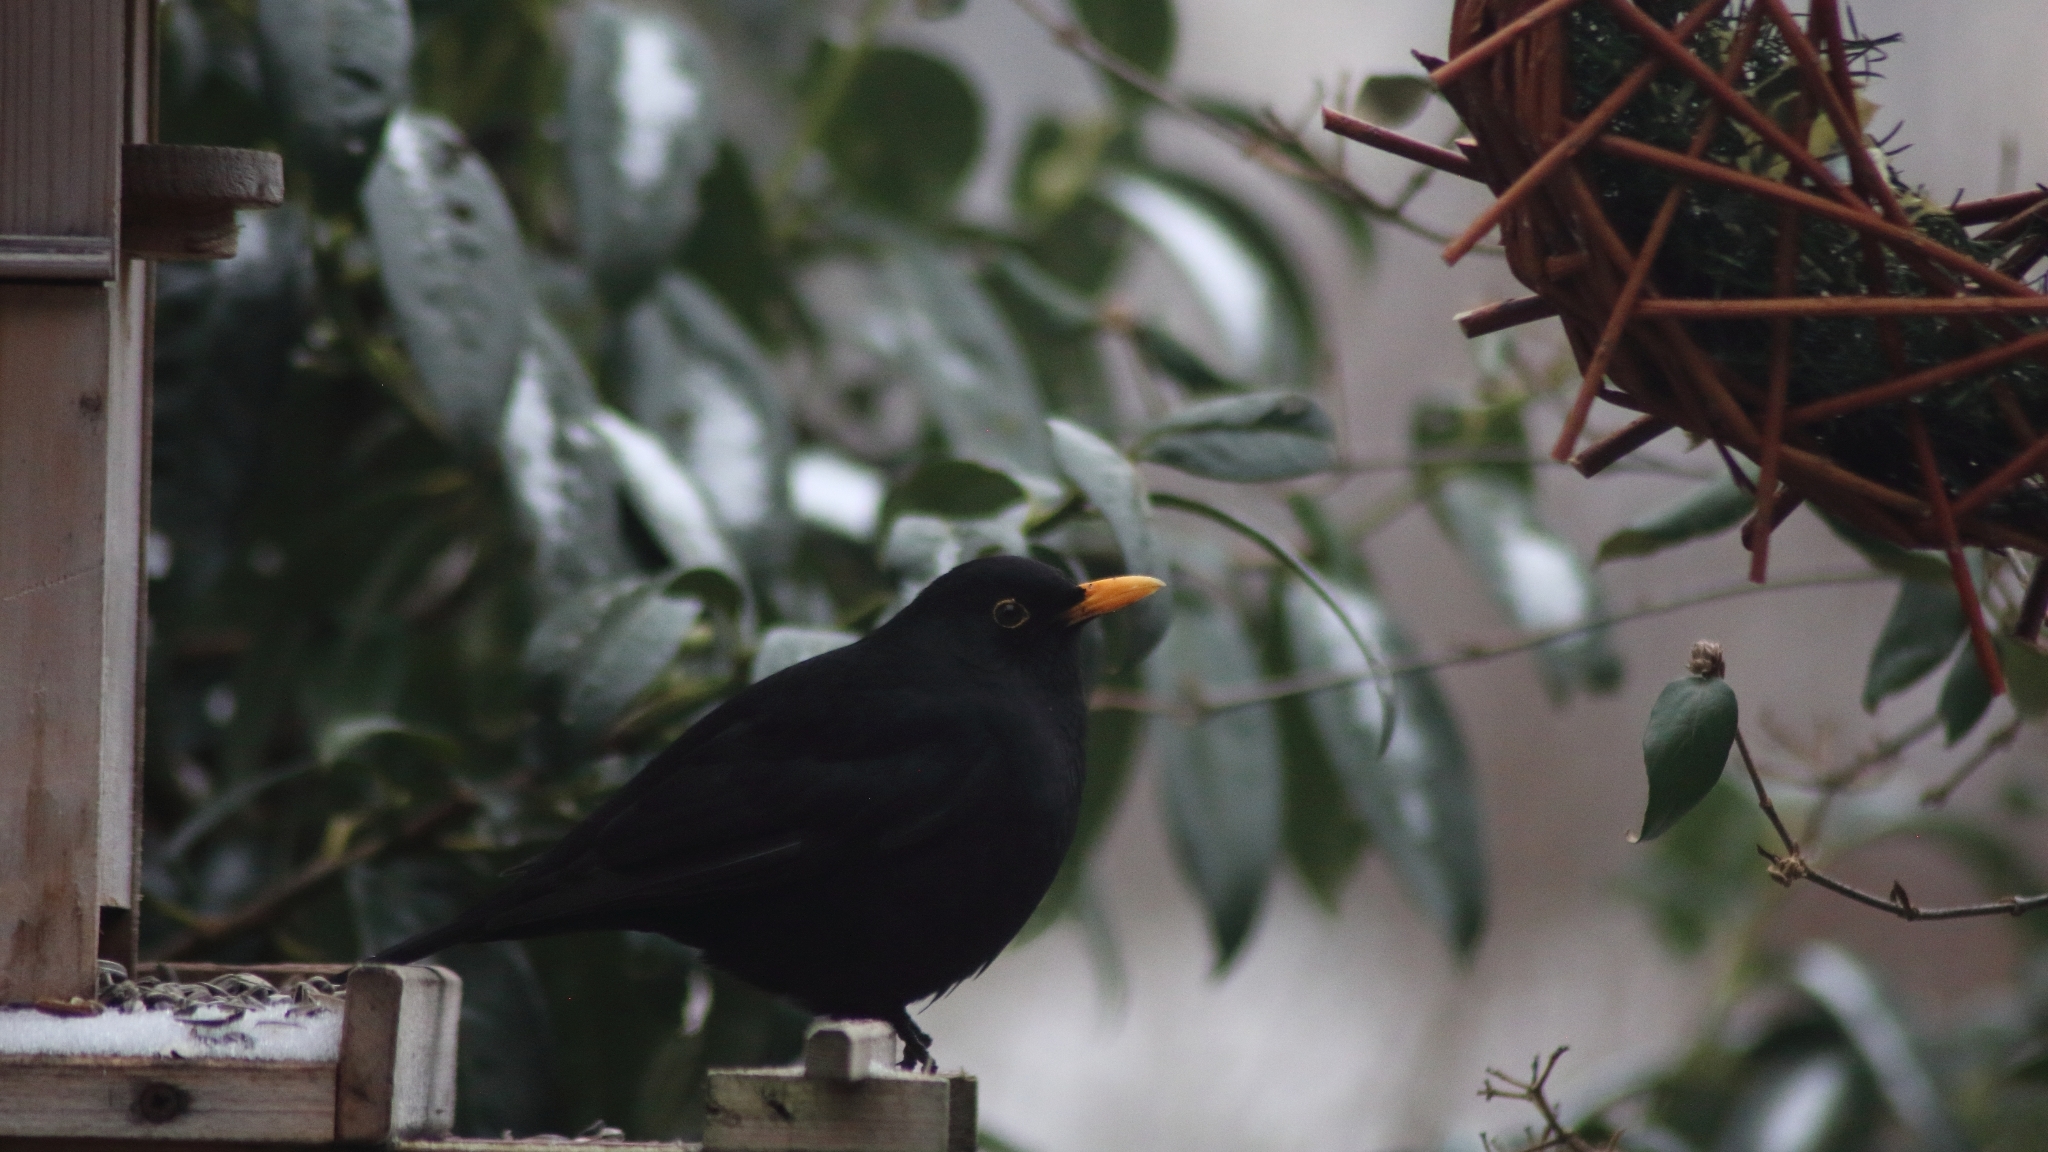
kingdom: Animalia
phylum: Chordata
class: Aves
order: Passeriformes
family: Turdidae
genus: Turdus
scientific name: Turdus merula
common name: Common blackbird
